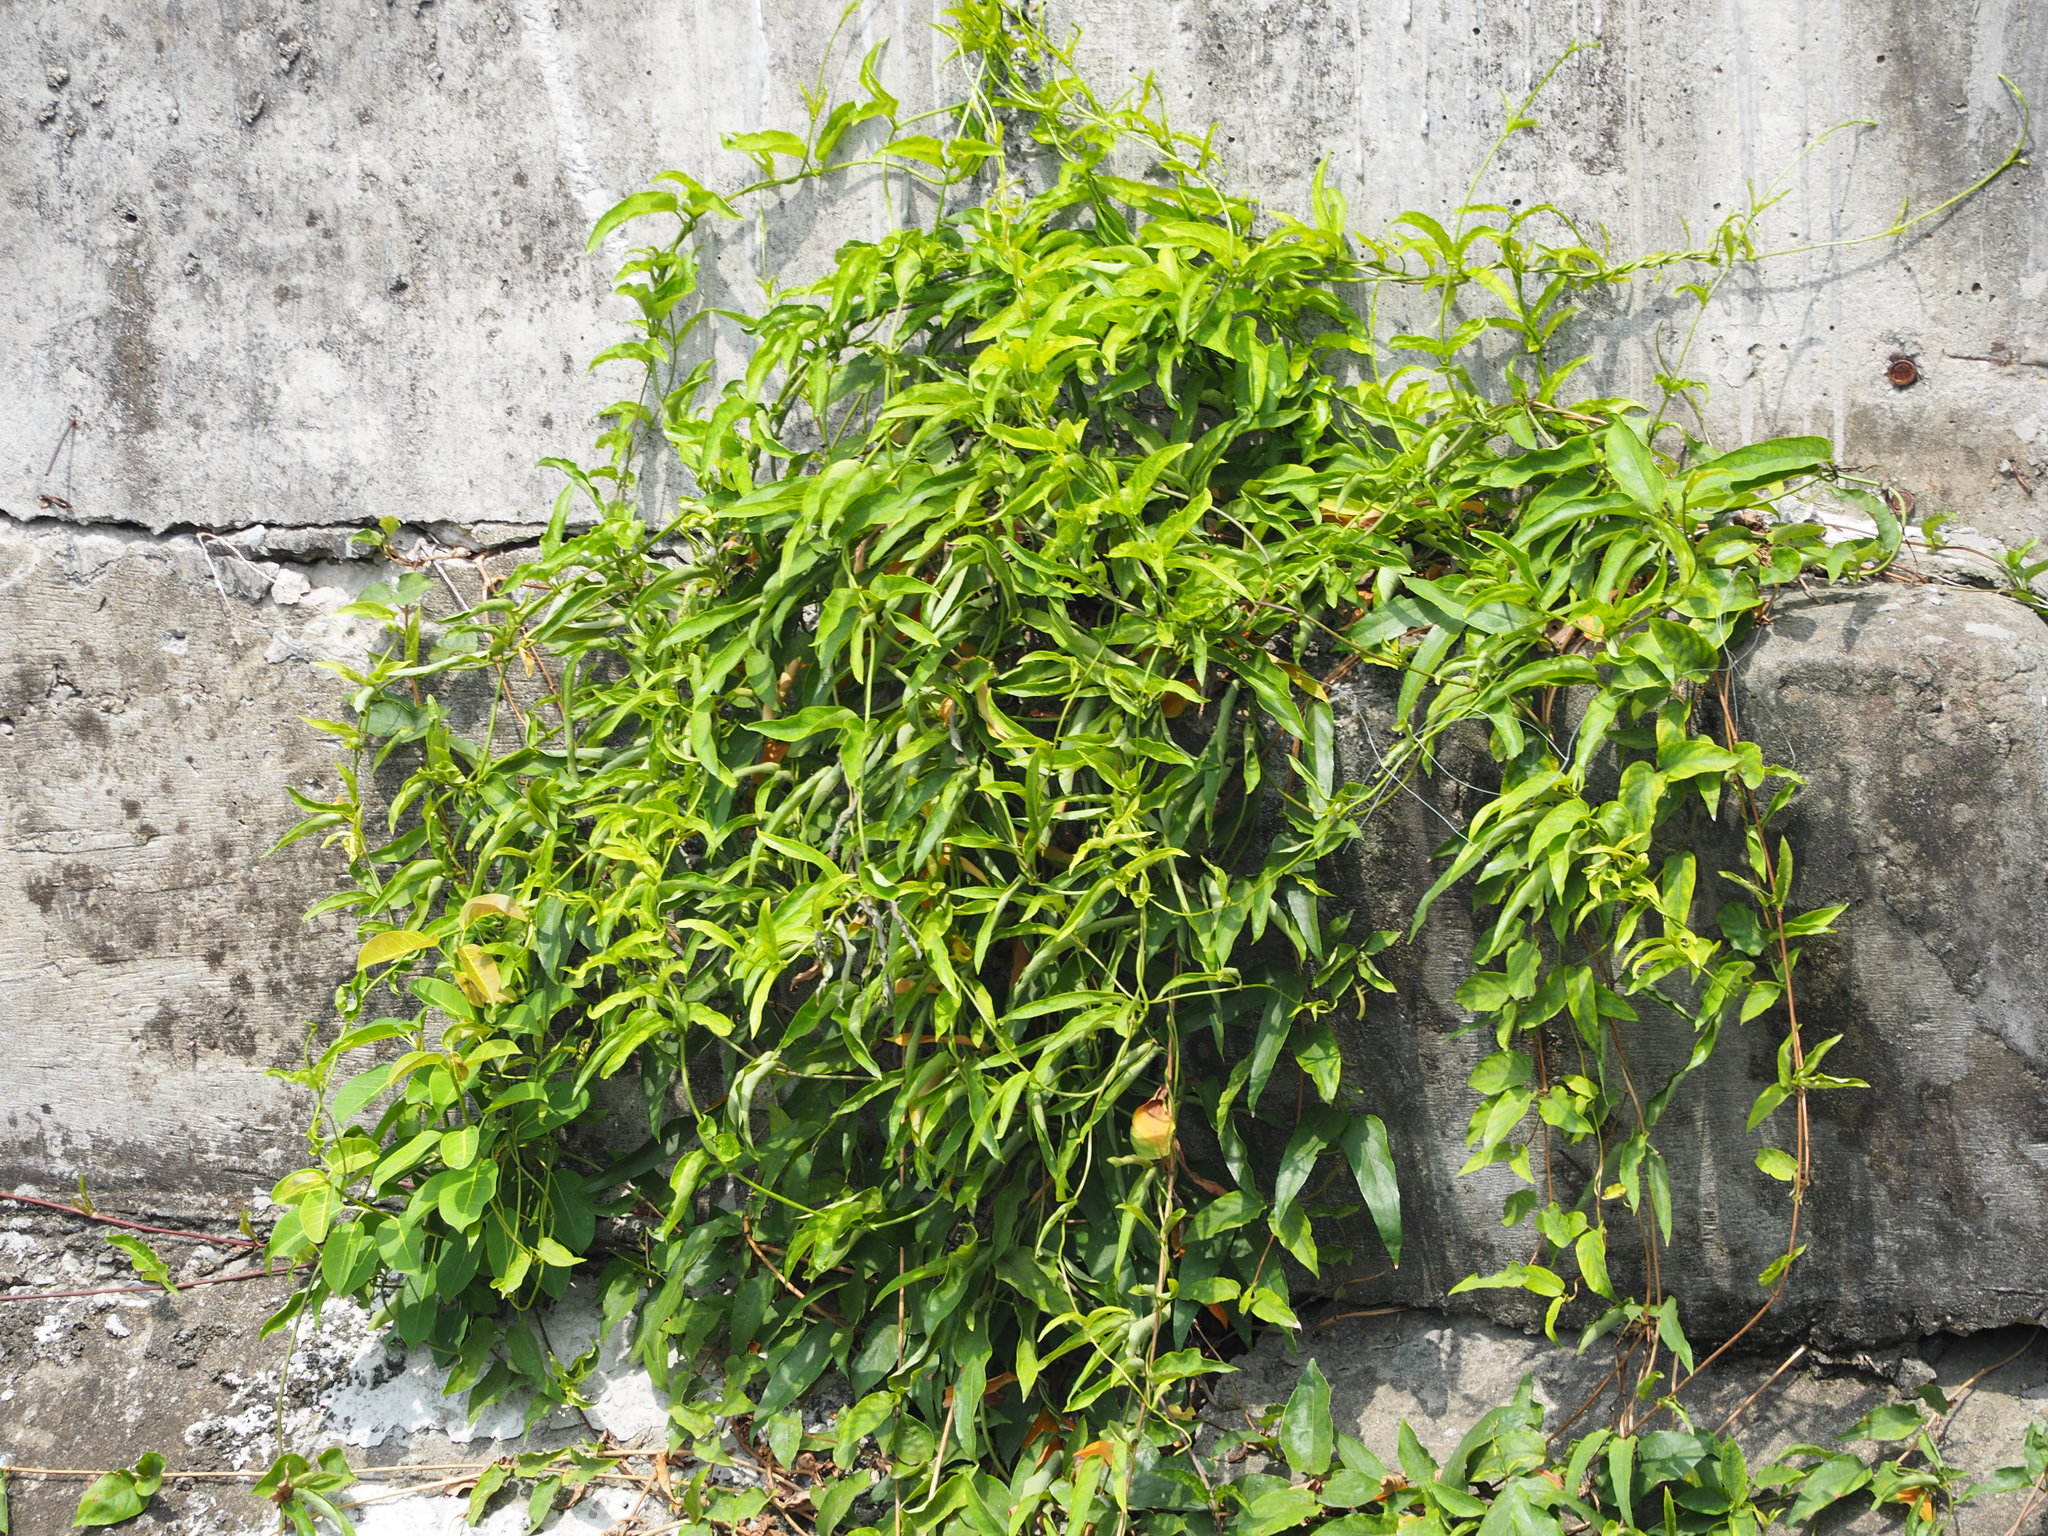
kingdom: Plantae
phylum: Tracheophyta
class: Magnoliopsida
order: Gentianales
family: Rubiaceae
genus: Paederia
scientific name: Paederia foetida
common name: Stinkvine
